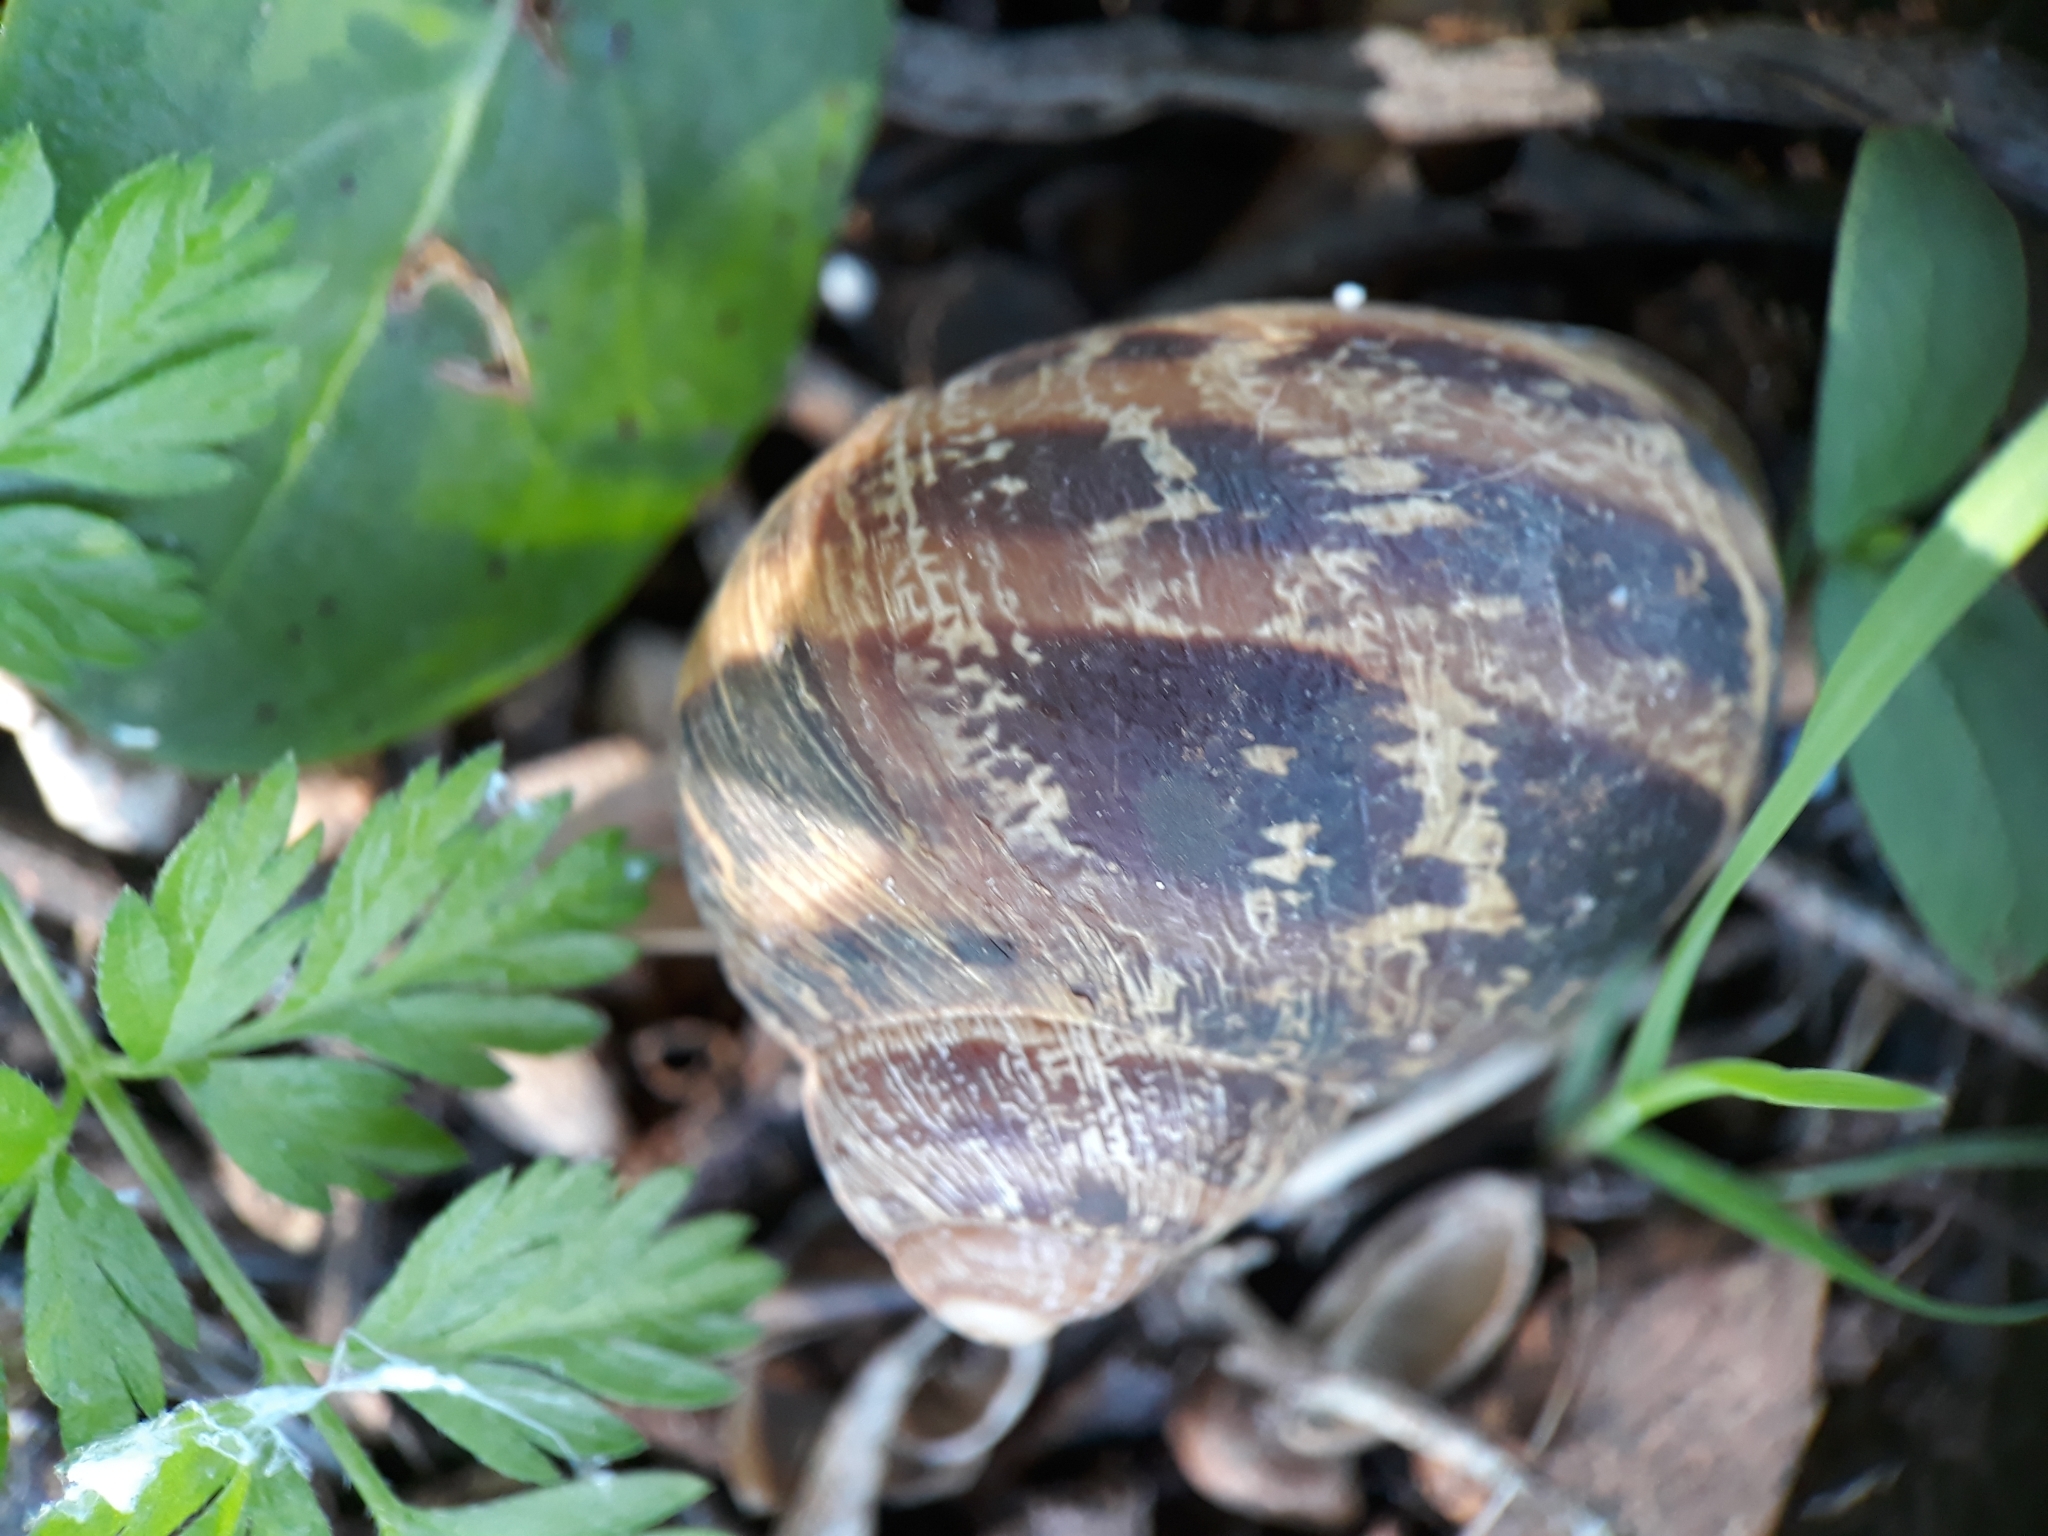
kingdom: Animalia
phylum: Mollusca
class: Gastropoda
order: Stylommatophora
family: Helicidae
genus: Cornu
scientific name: Cornu aspersum
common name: Brown garden snail
